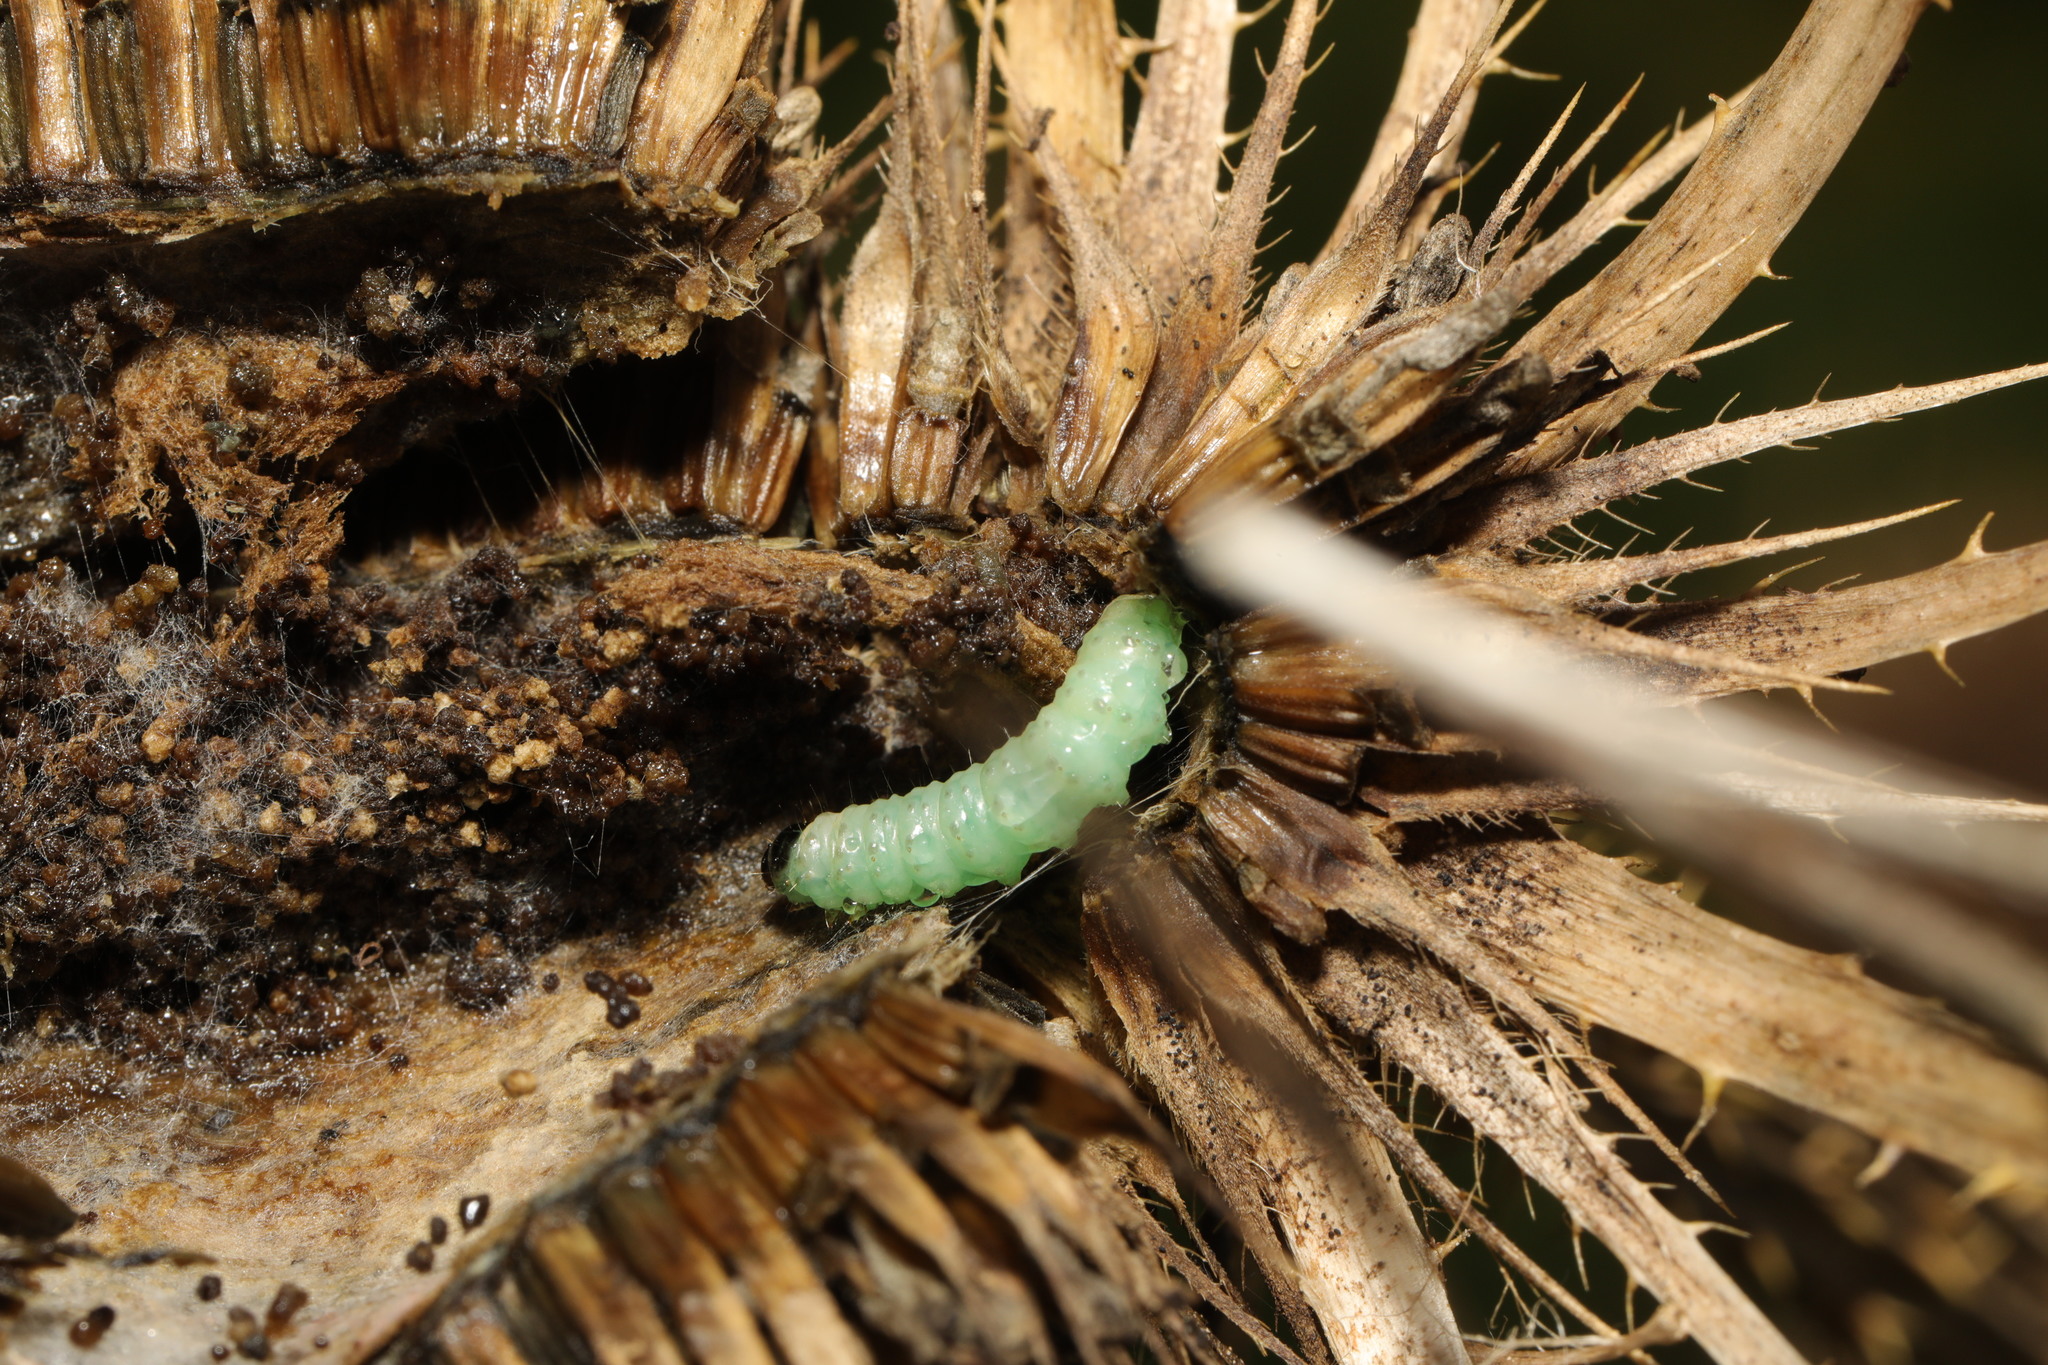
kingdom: Animalia
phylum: Arthropoda
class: Insecta
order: Lepidoptera
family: Tortricidae
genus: Endothenia
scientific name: Endothenia gentianaeana
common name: Teasel marble
